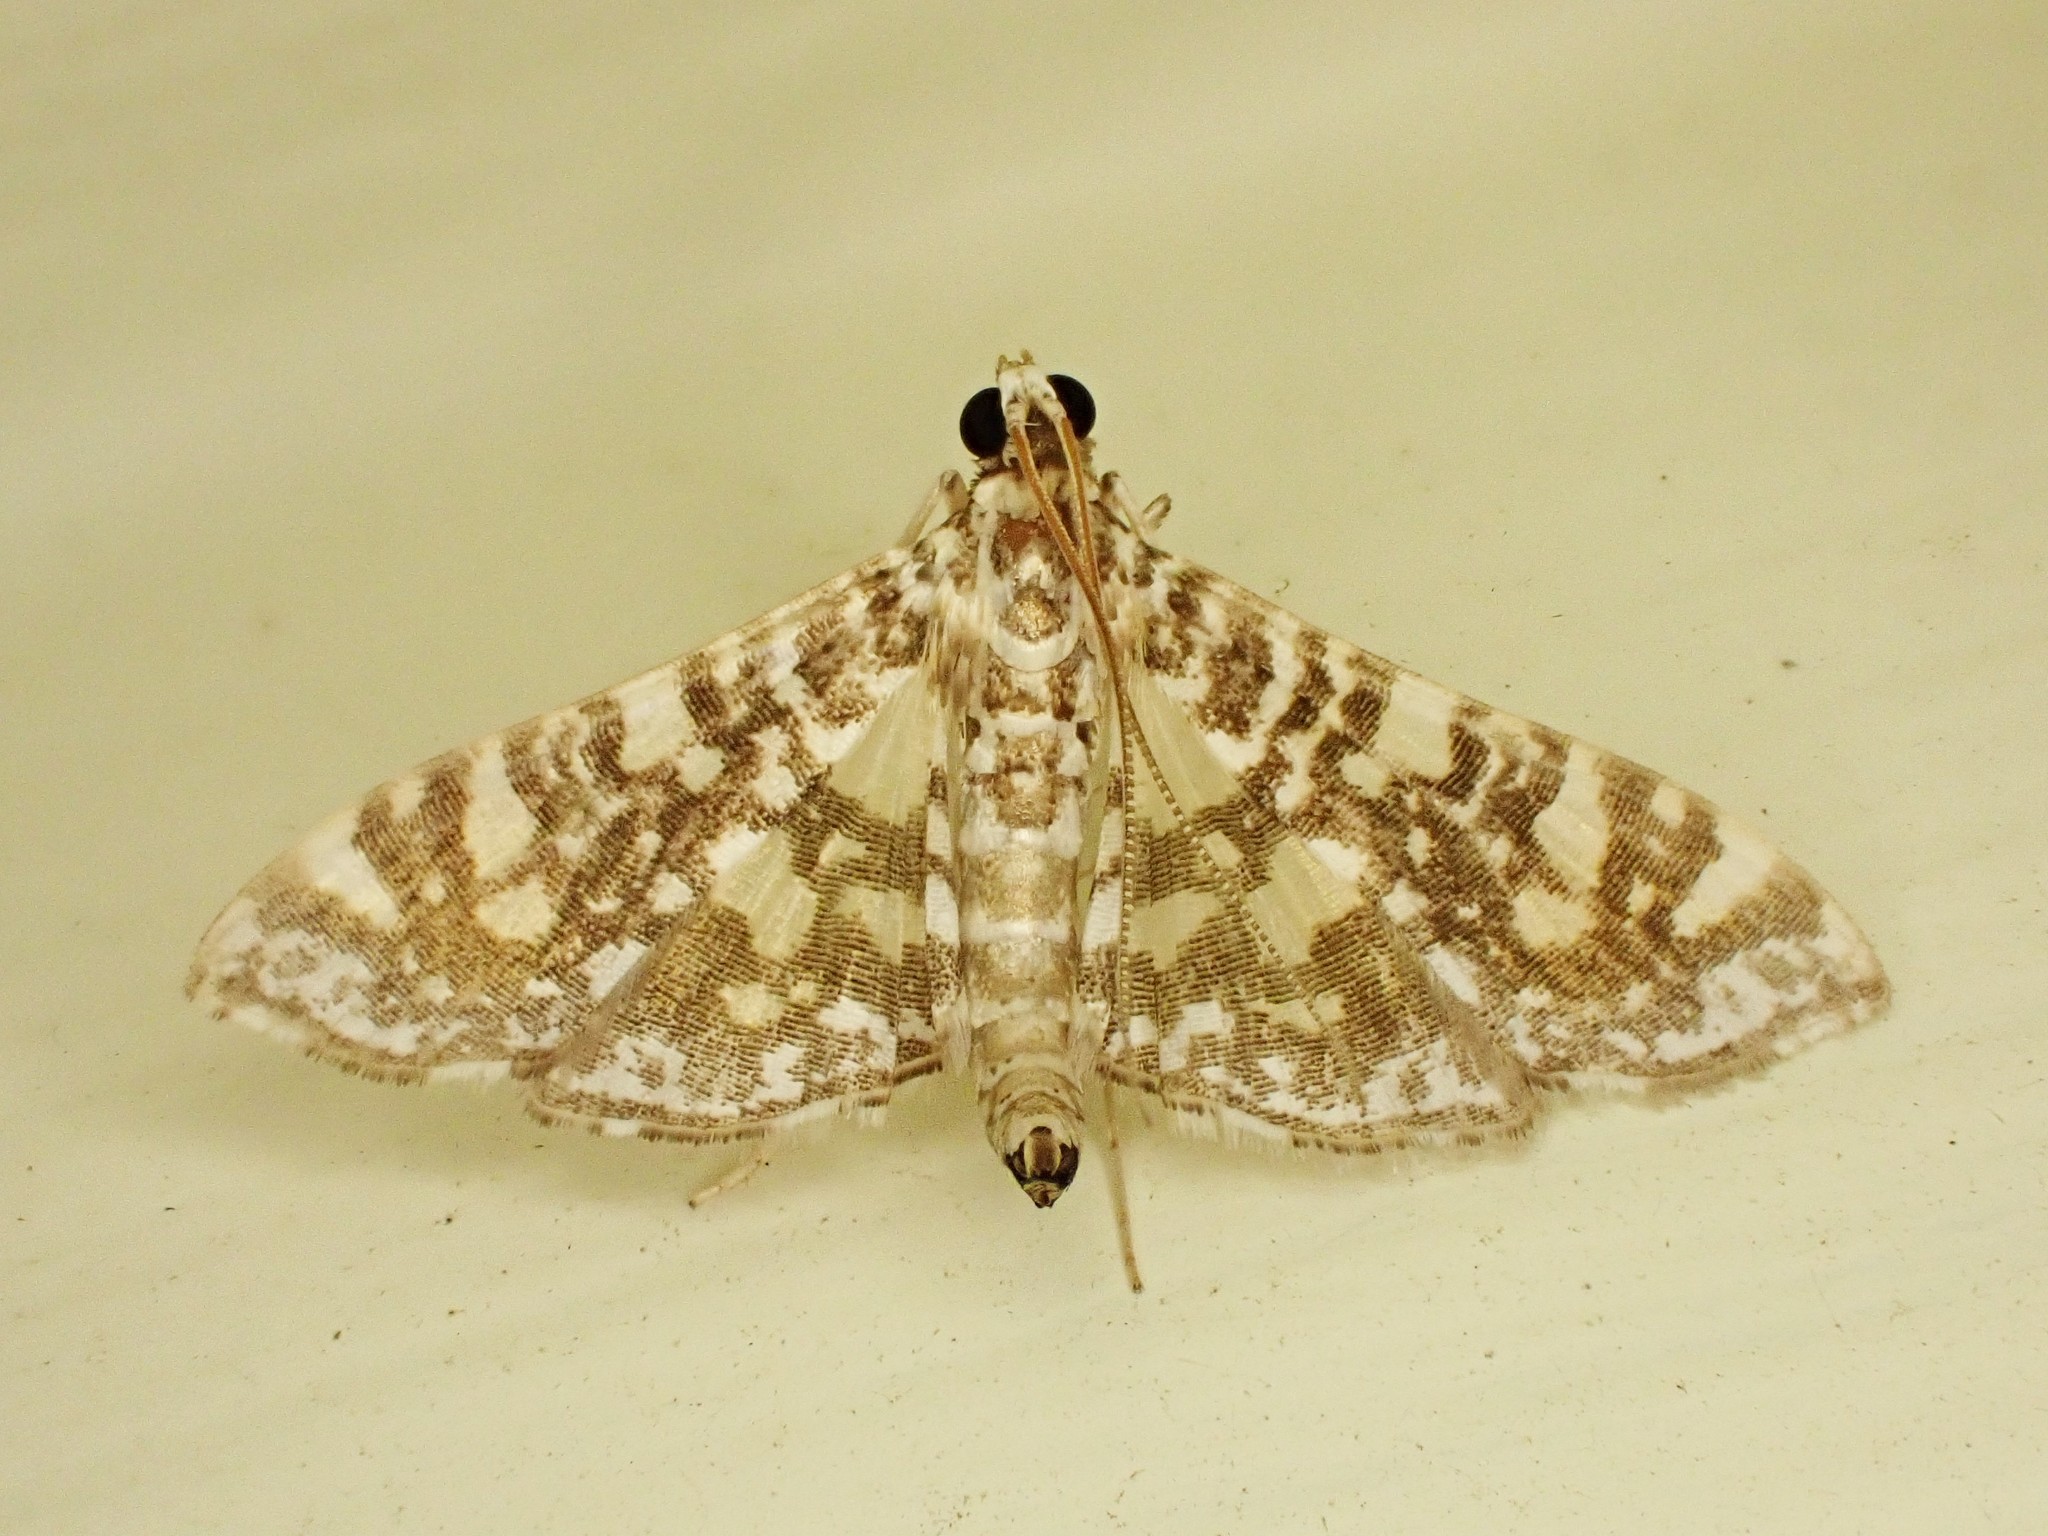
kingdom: Animalia
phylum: Arthropoda
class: Insecta
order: Lepidoptera
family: Crambidae
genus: Glyphodes
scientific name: Glyphodes onychinalis
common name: Swan plant moth
